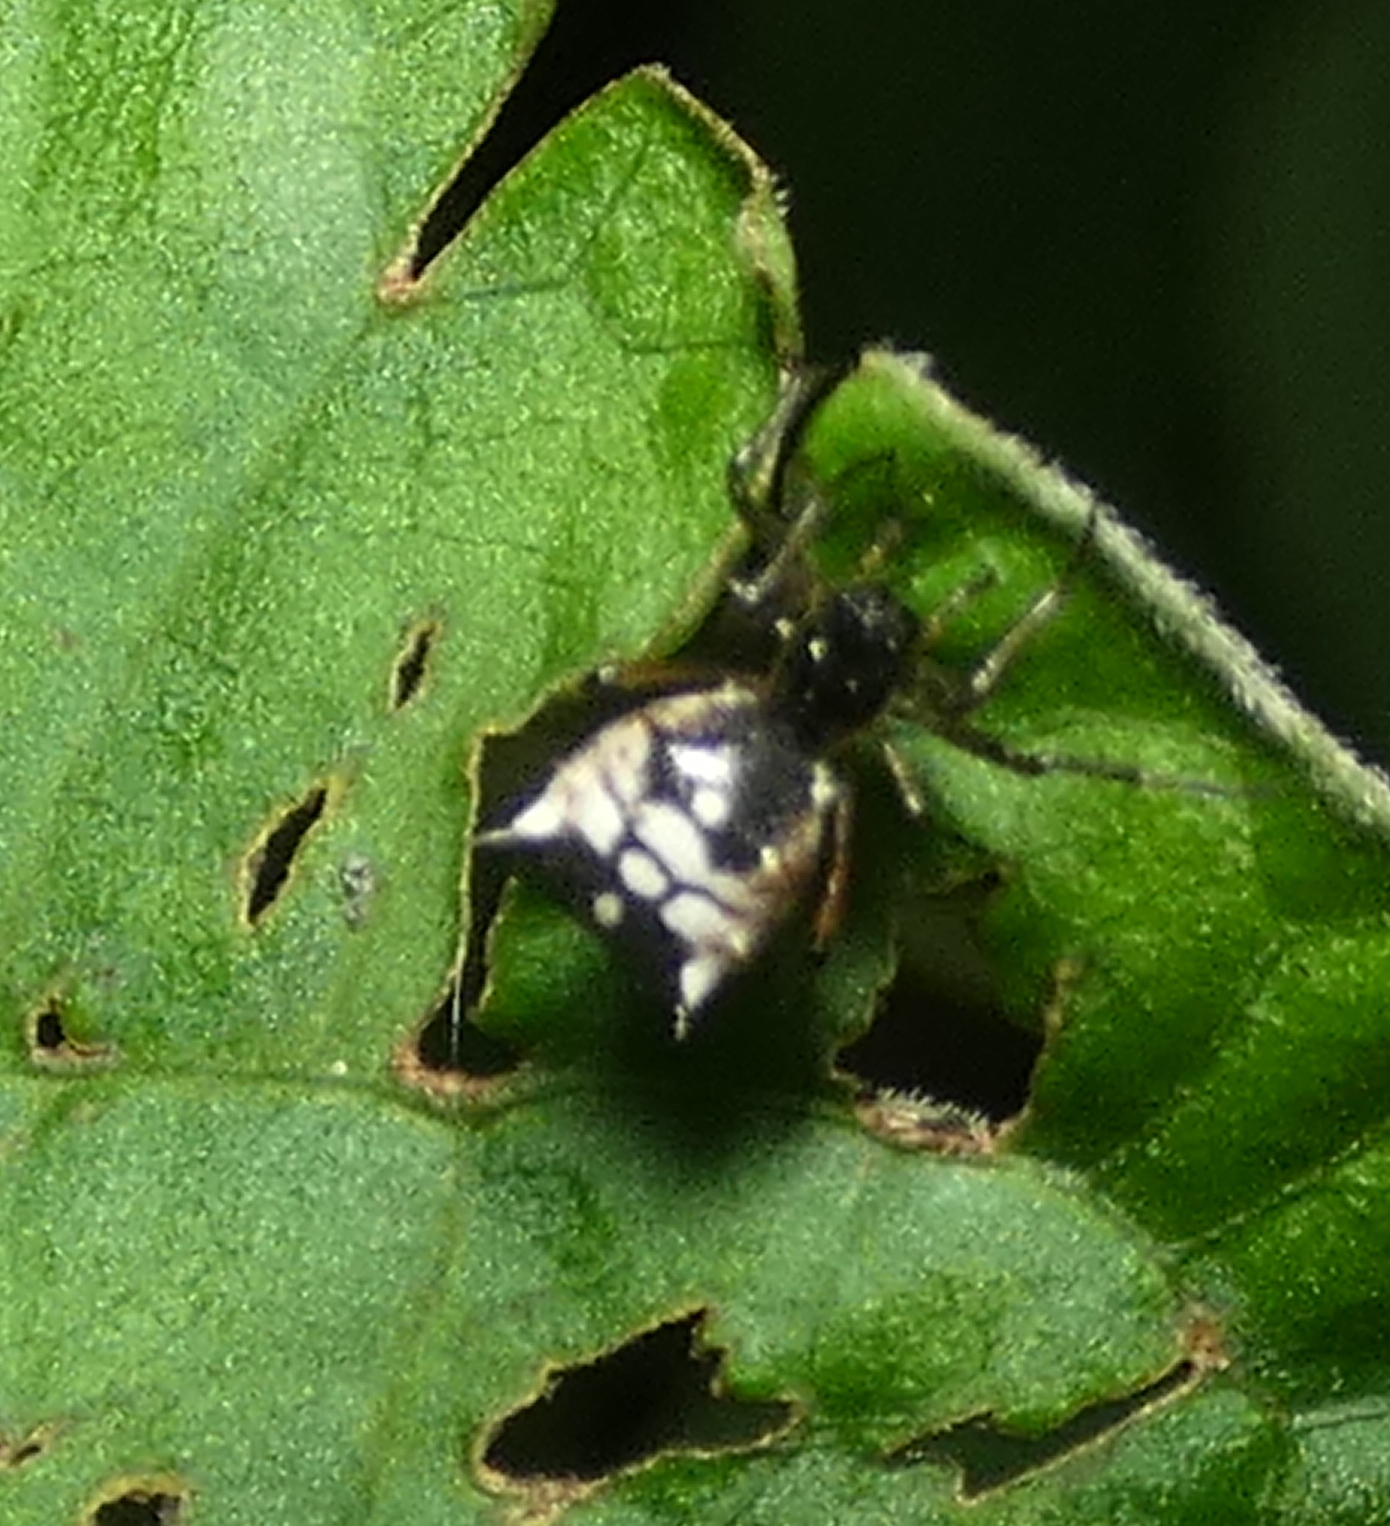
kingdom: Animalia
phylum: Arthropoda
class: Arachnida
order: Araneae
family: Araneidae
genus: Micrathena
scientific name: Micrathena picta
